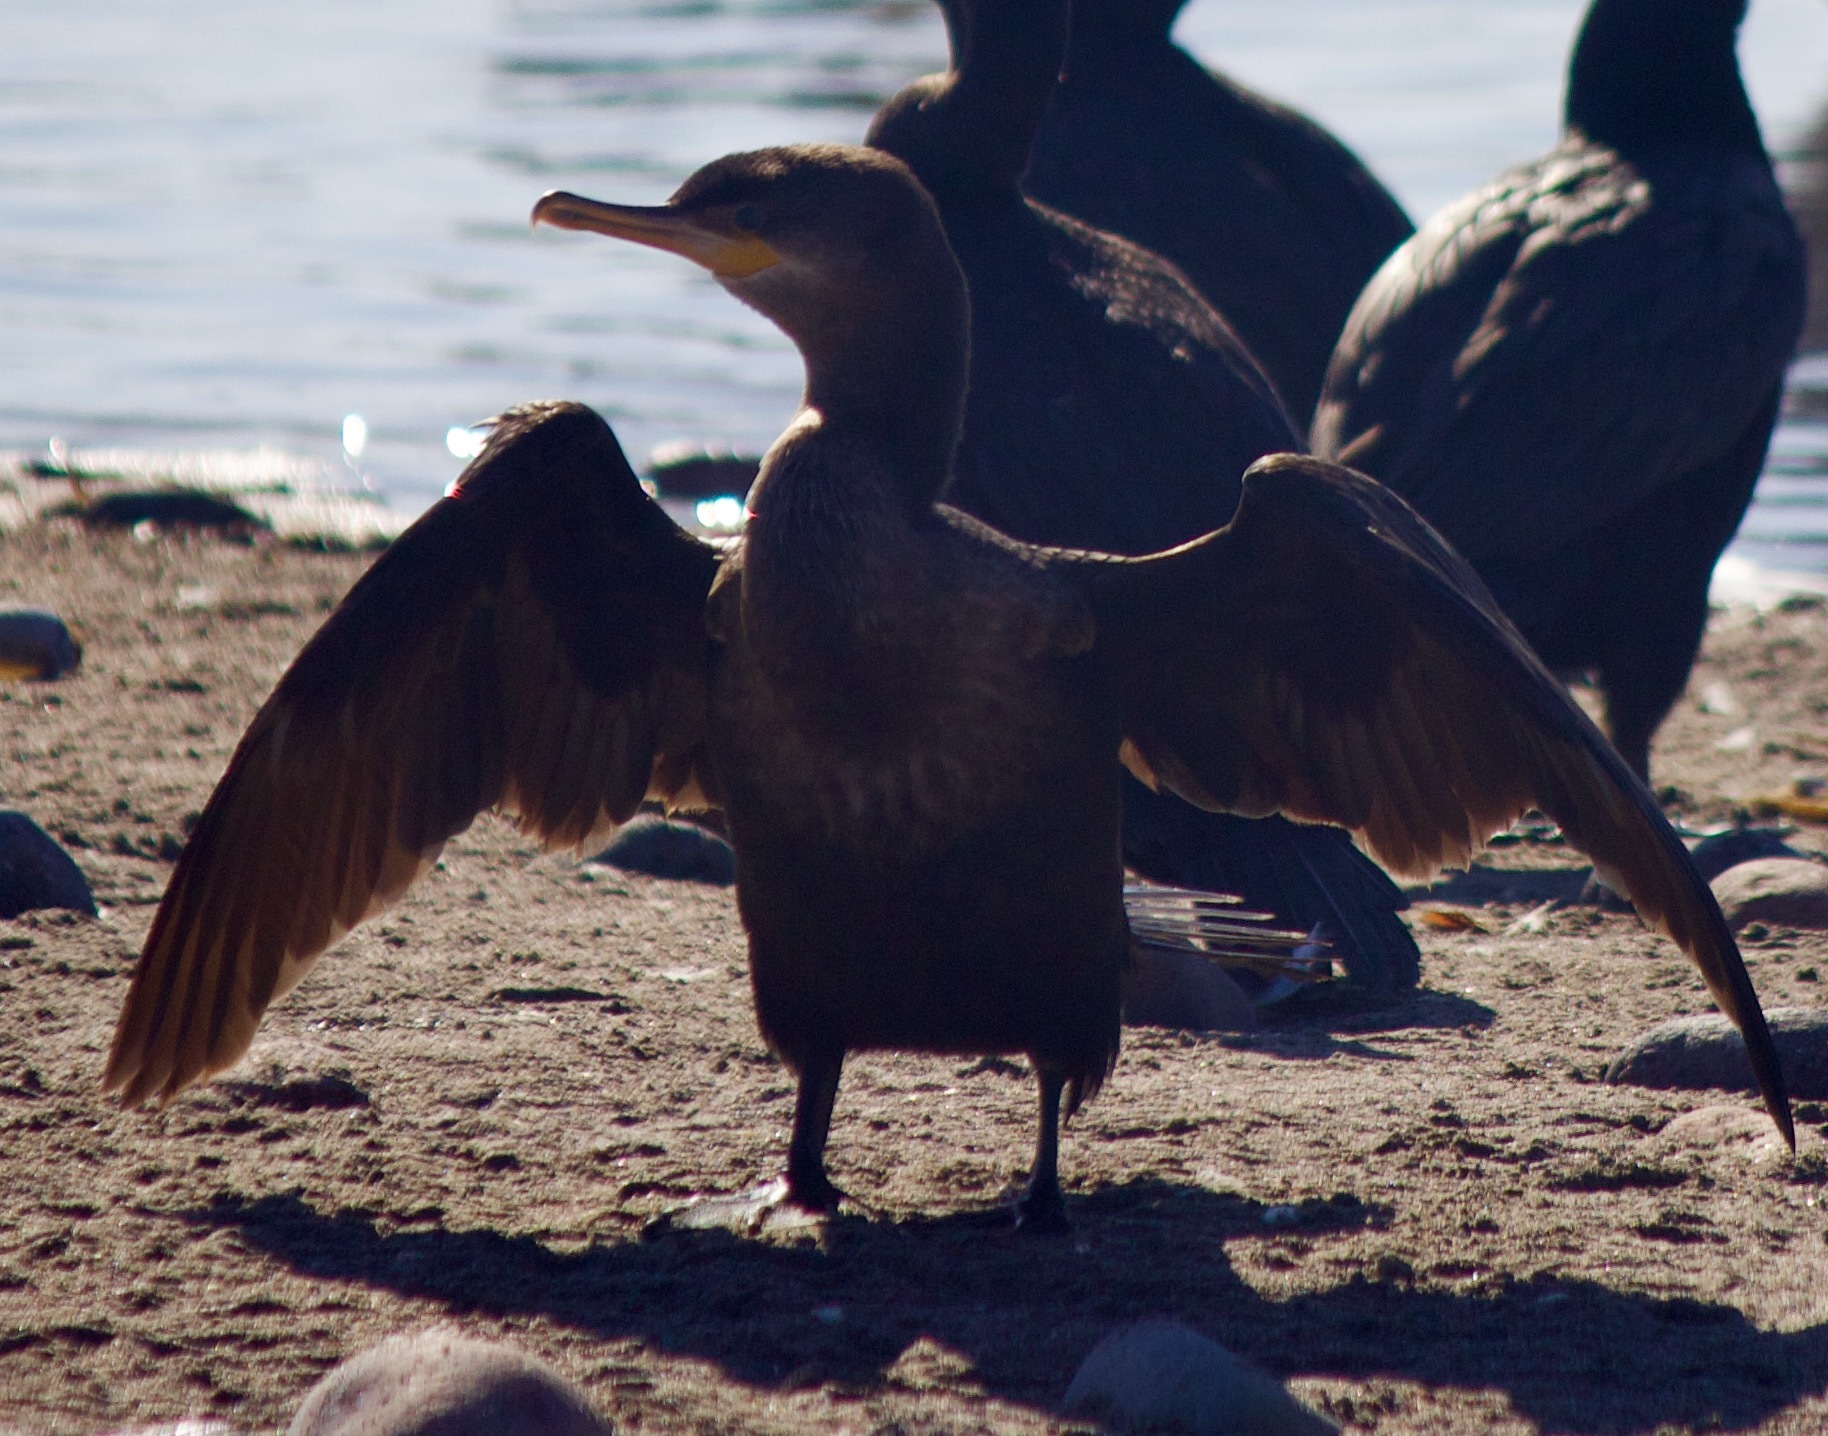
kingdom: Animalia
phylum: Chordata
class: Aves
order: Suliformes
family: Phalacrocoracidae
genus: Phalacrocorax
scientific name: Phalacrocorax brasilianus
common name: Neotropic cormorant
